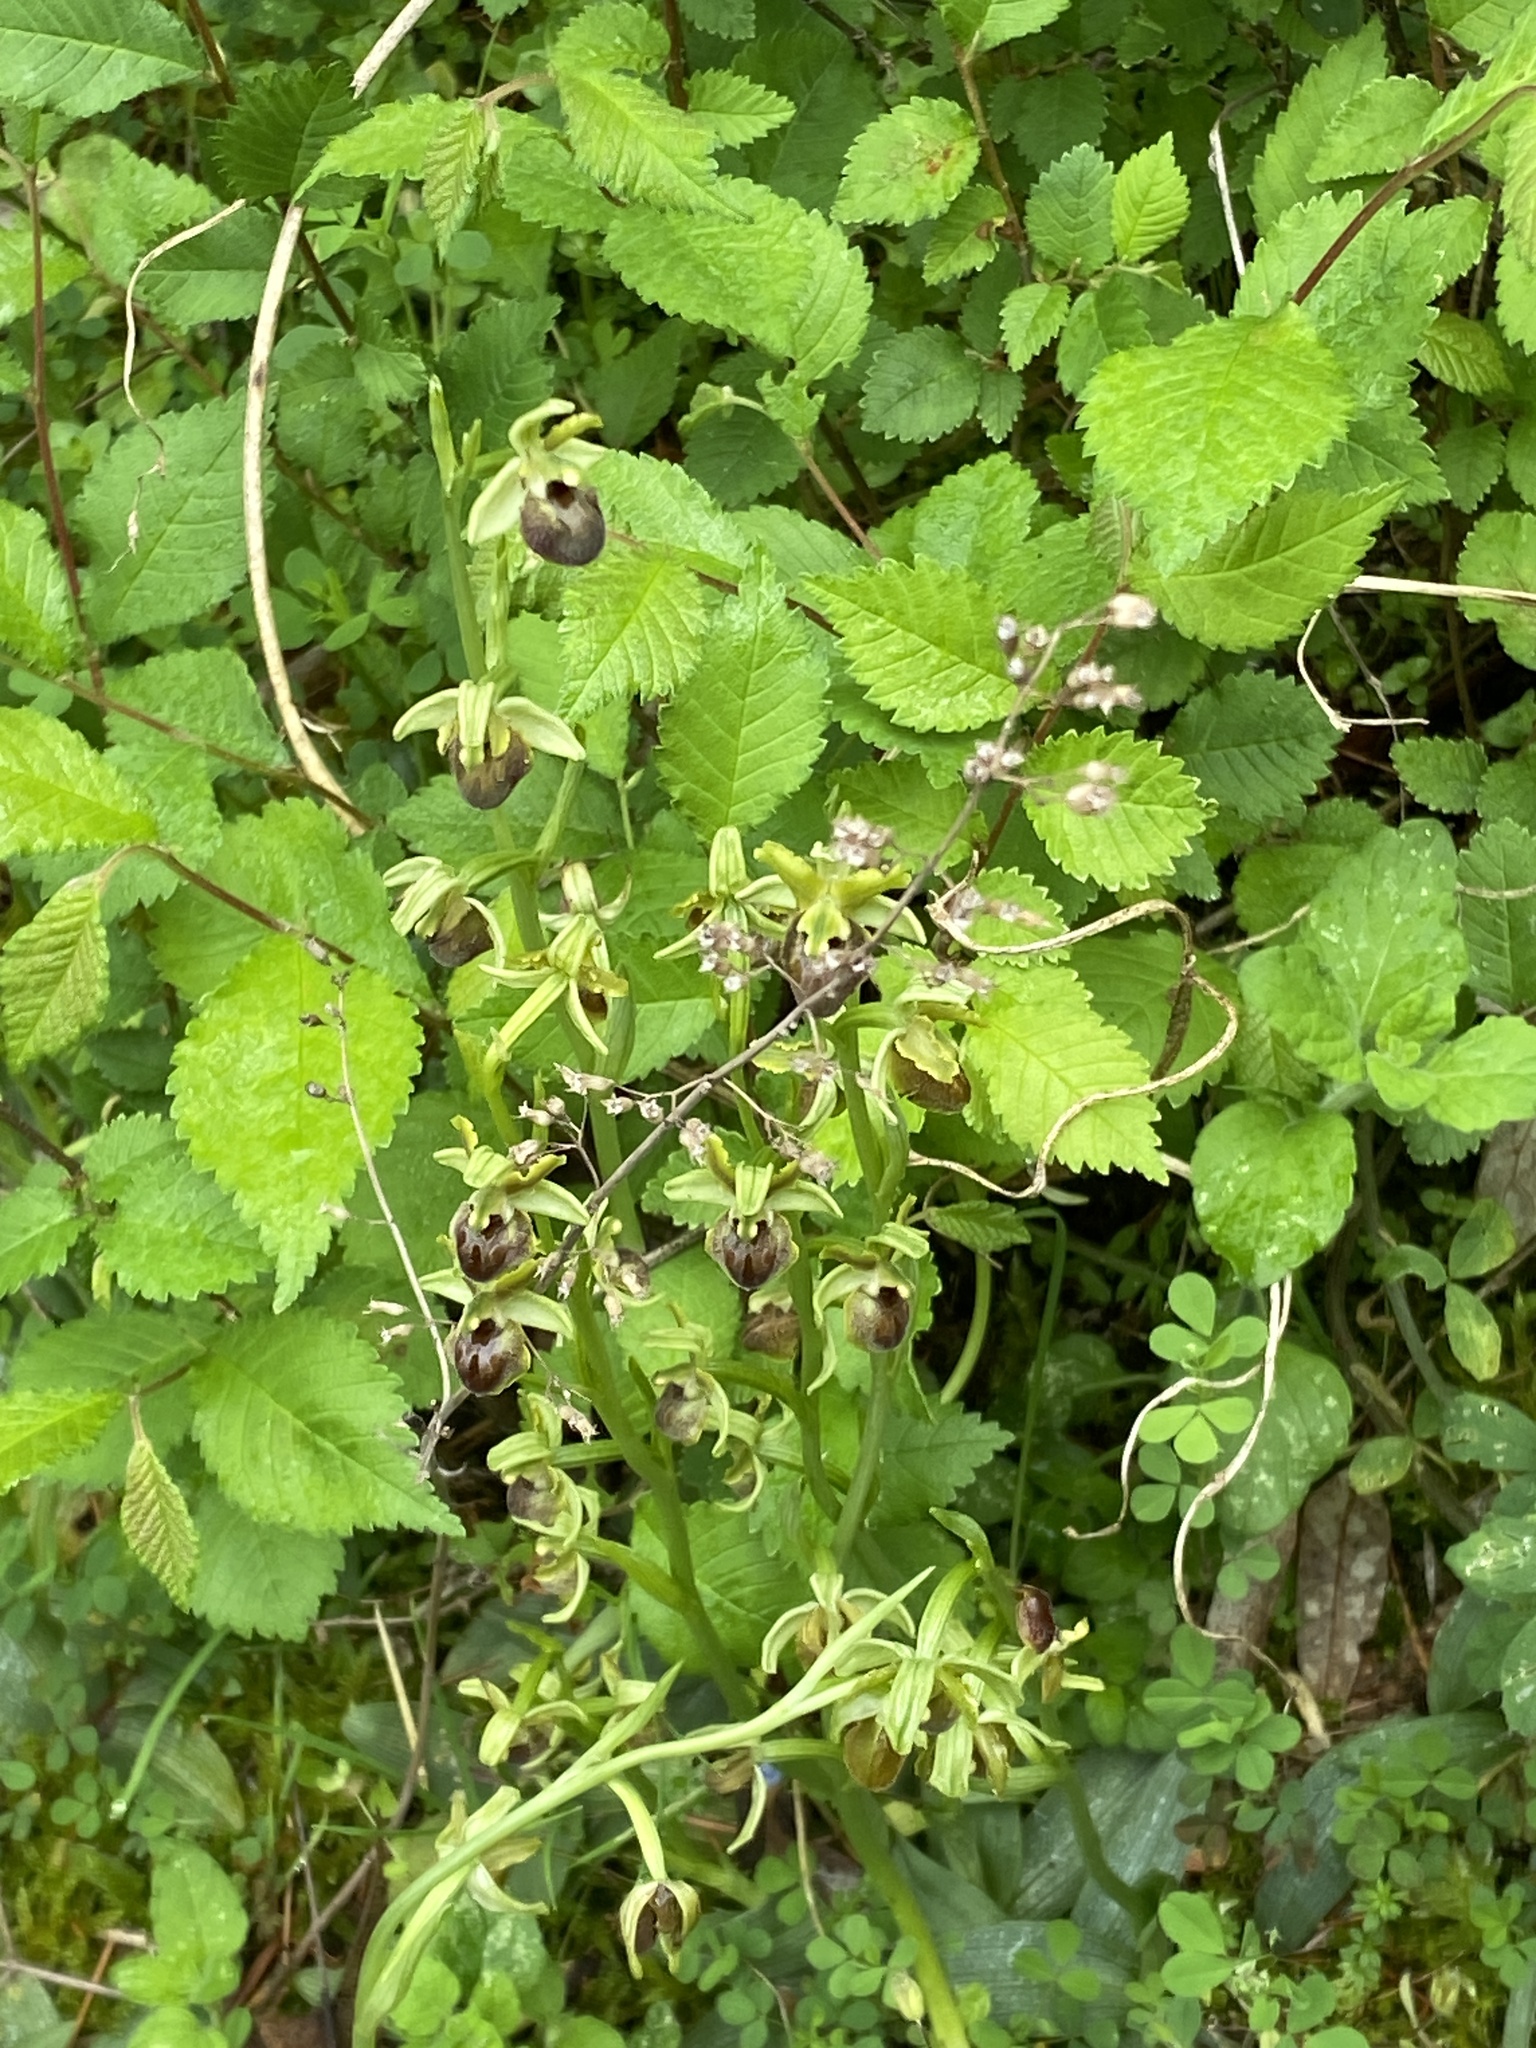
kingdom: Plantae
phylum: Tracheophyta
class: Liliopsida
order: Asparagales
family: Orchidaceae
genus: Ophrys
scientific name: Ophrys sphegodes
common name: Early spider-orchid
